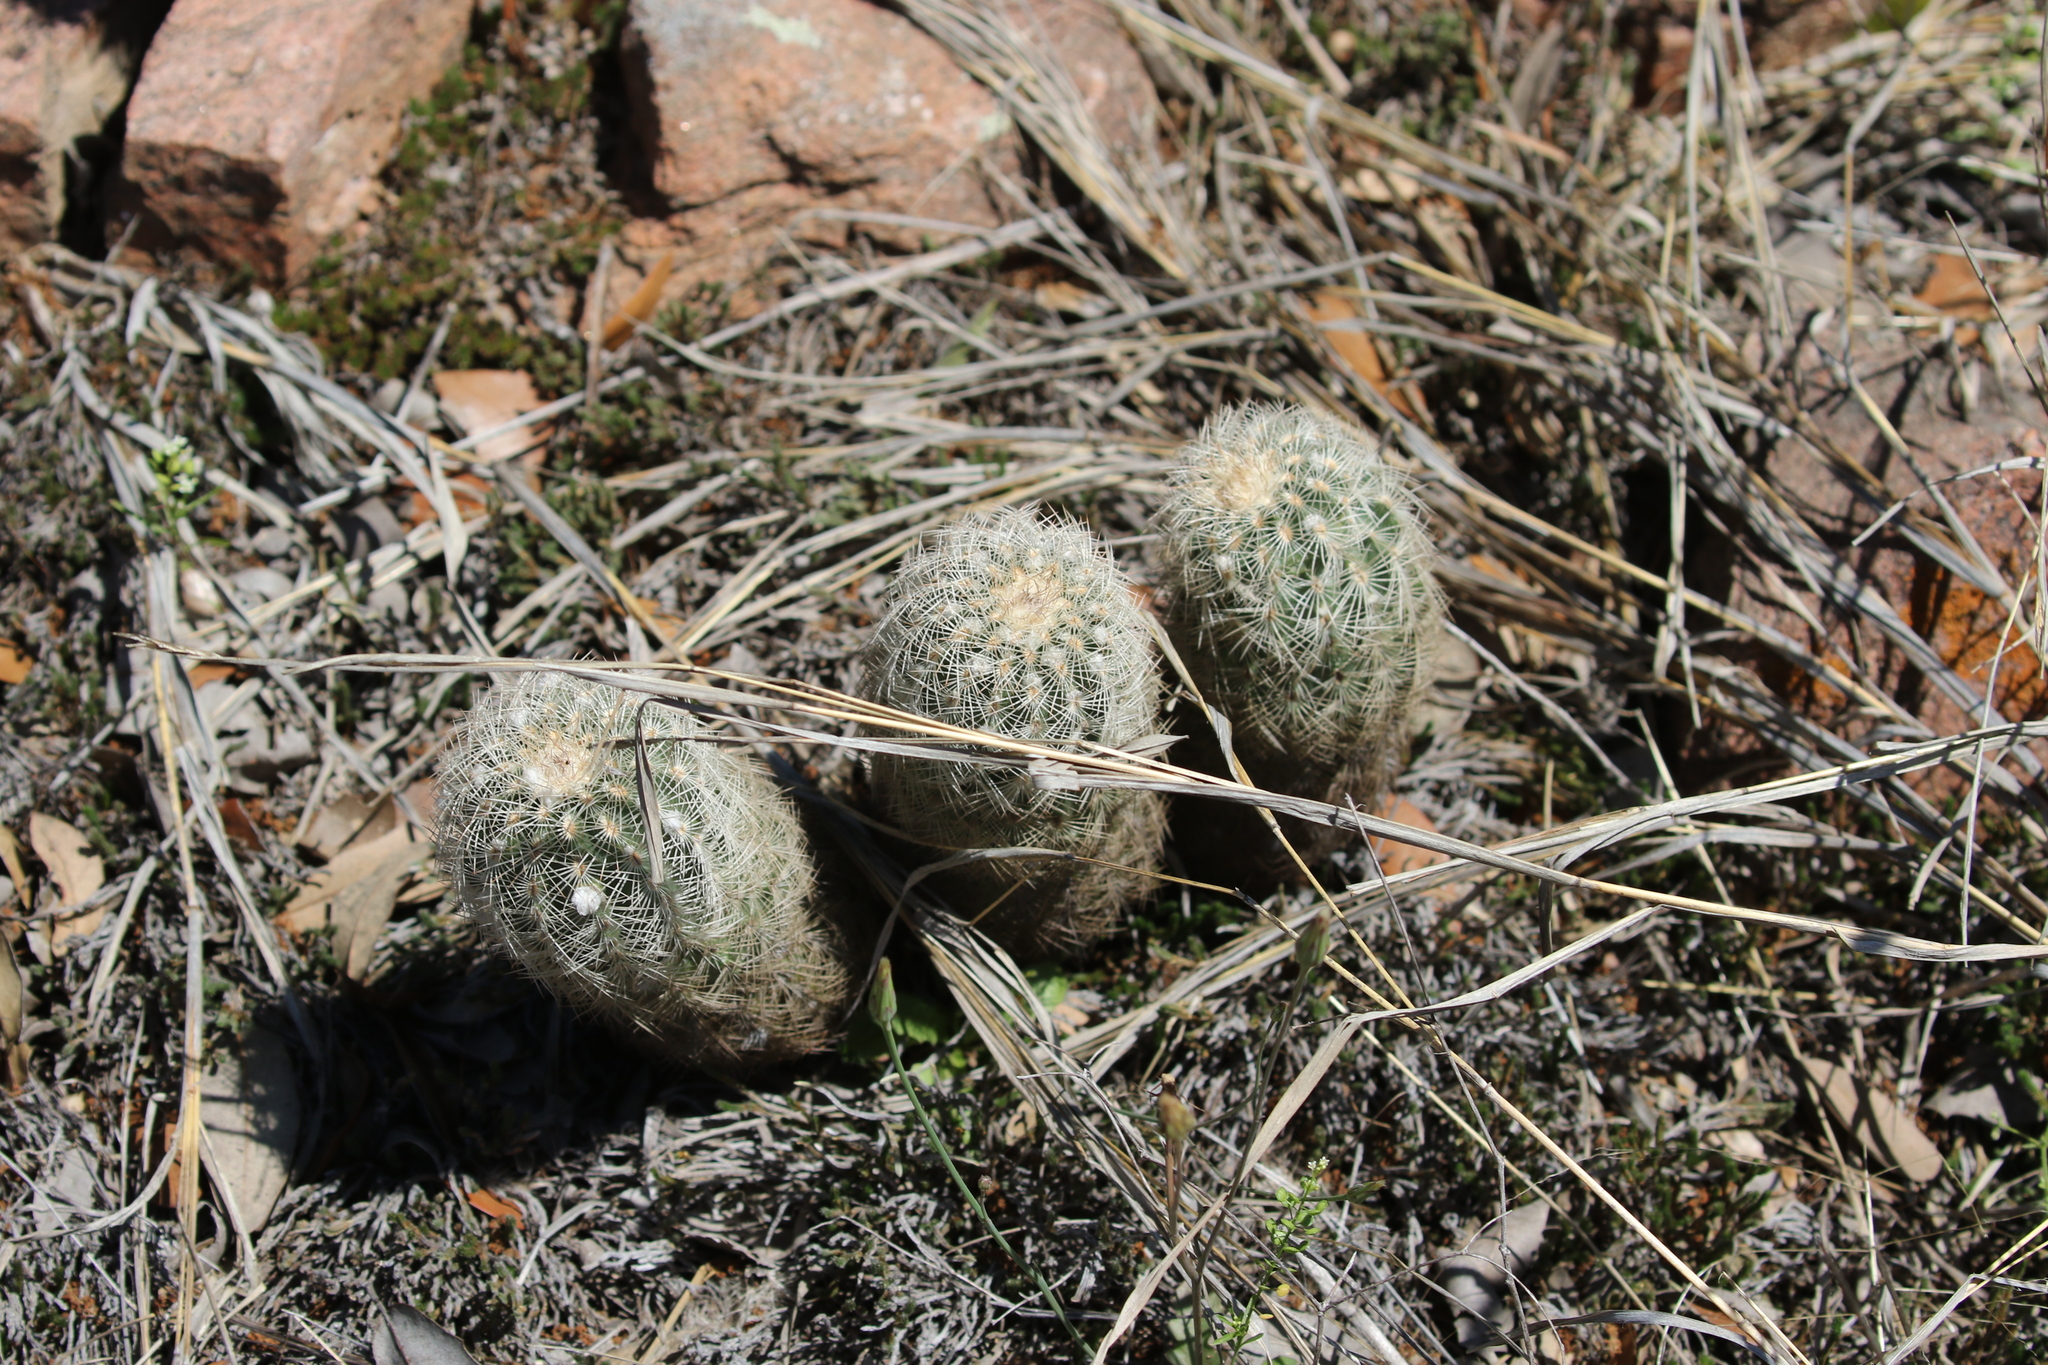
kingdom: Plantae
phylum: Tracheophyta
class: Magnoliopsida
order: Caryophyllales
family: Cactaceae
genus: Echinocereus
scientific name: Echinocereus reichenbachii
